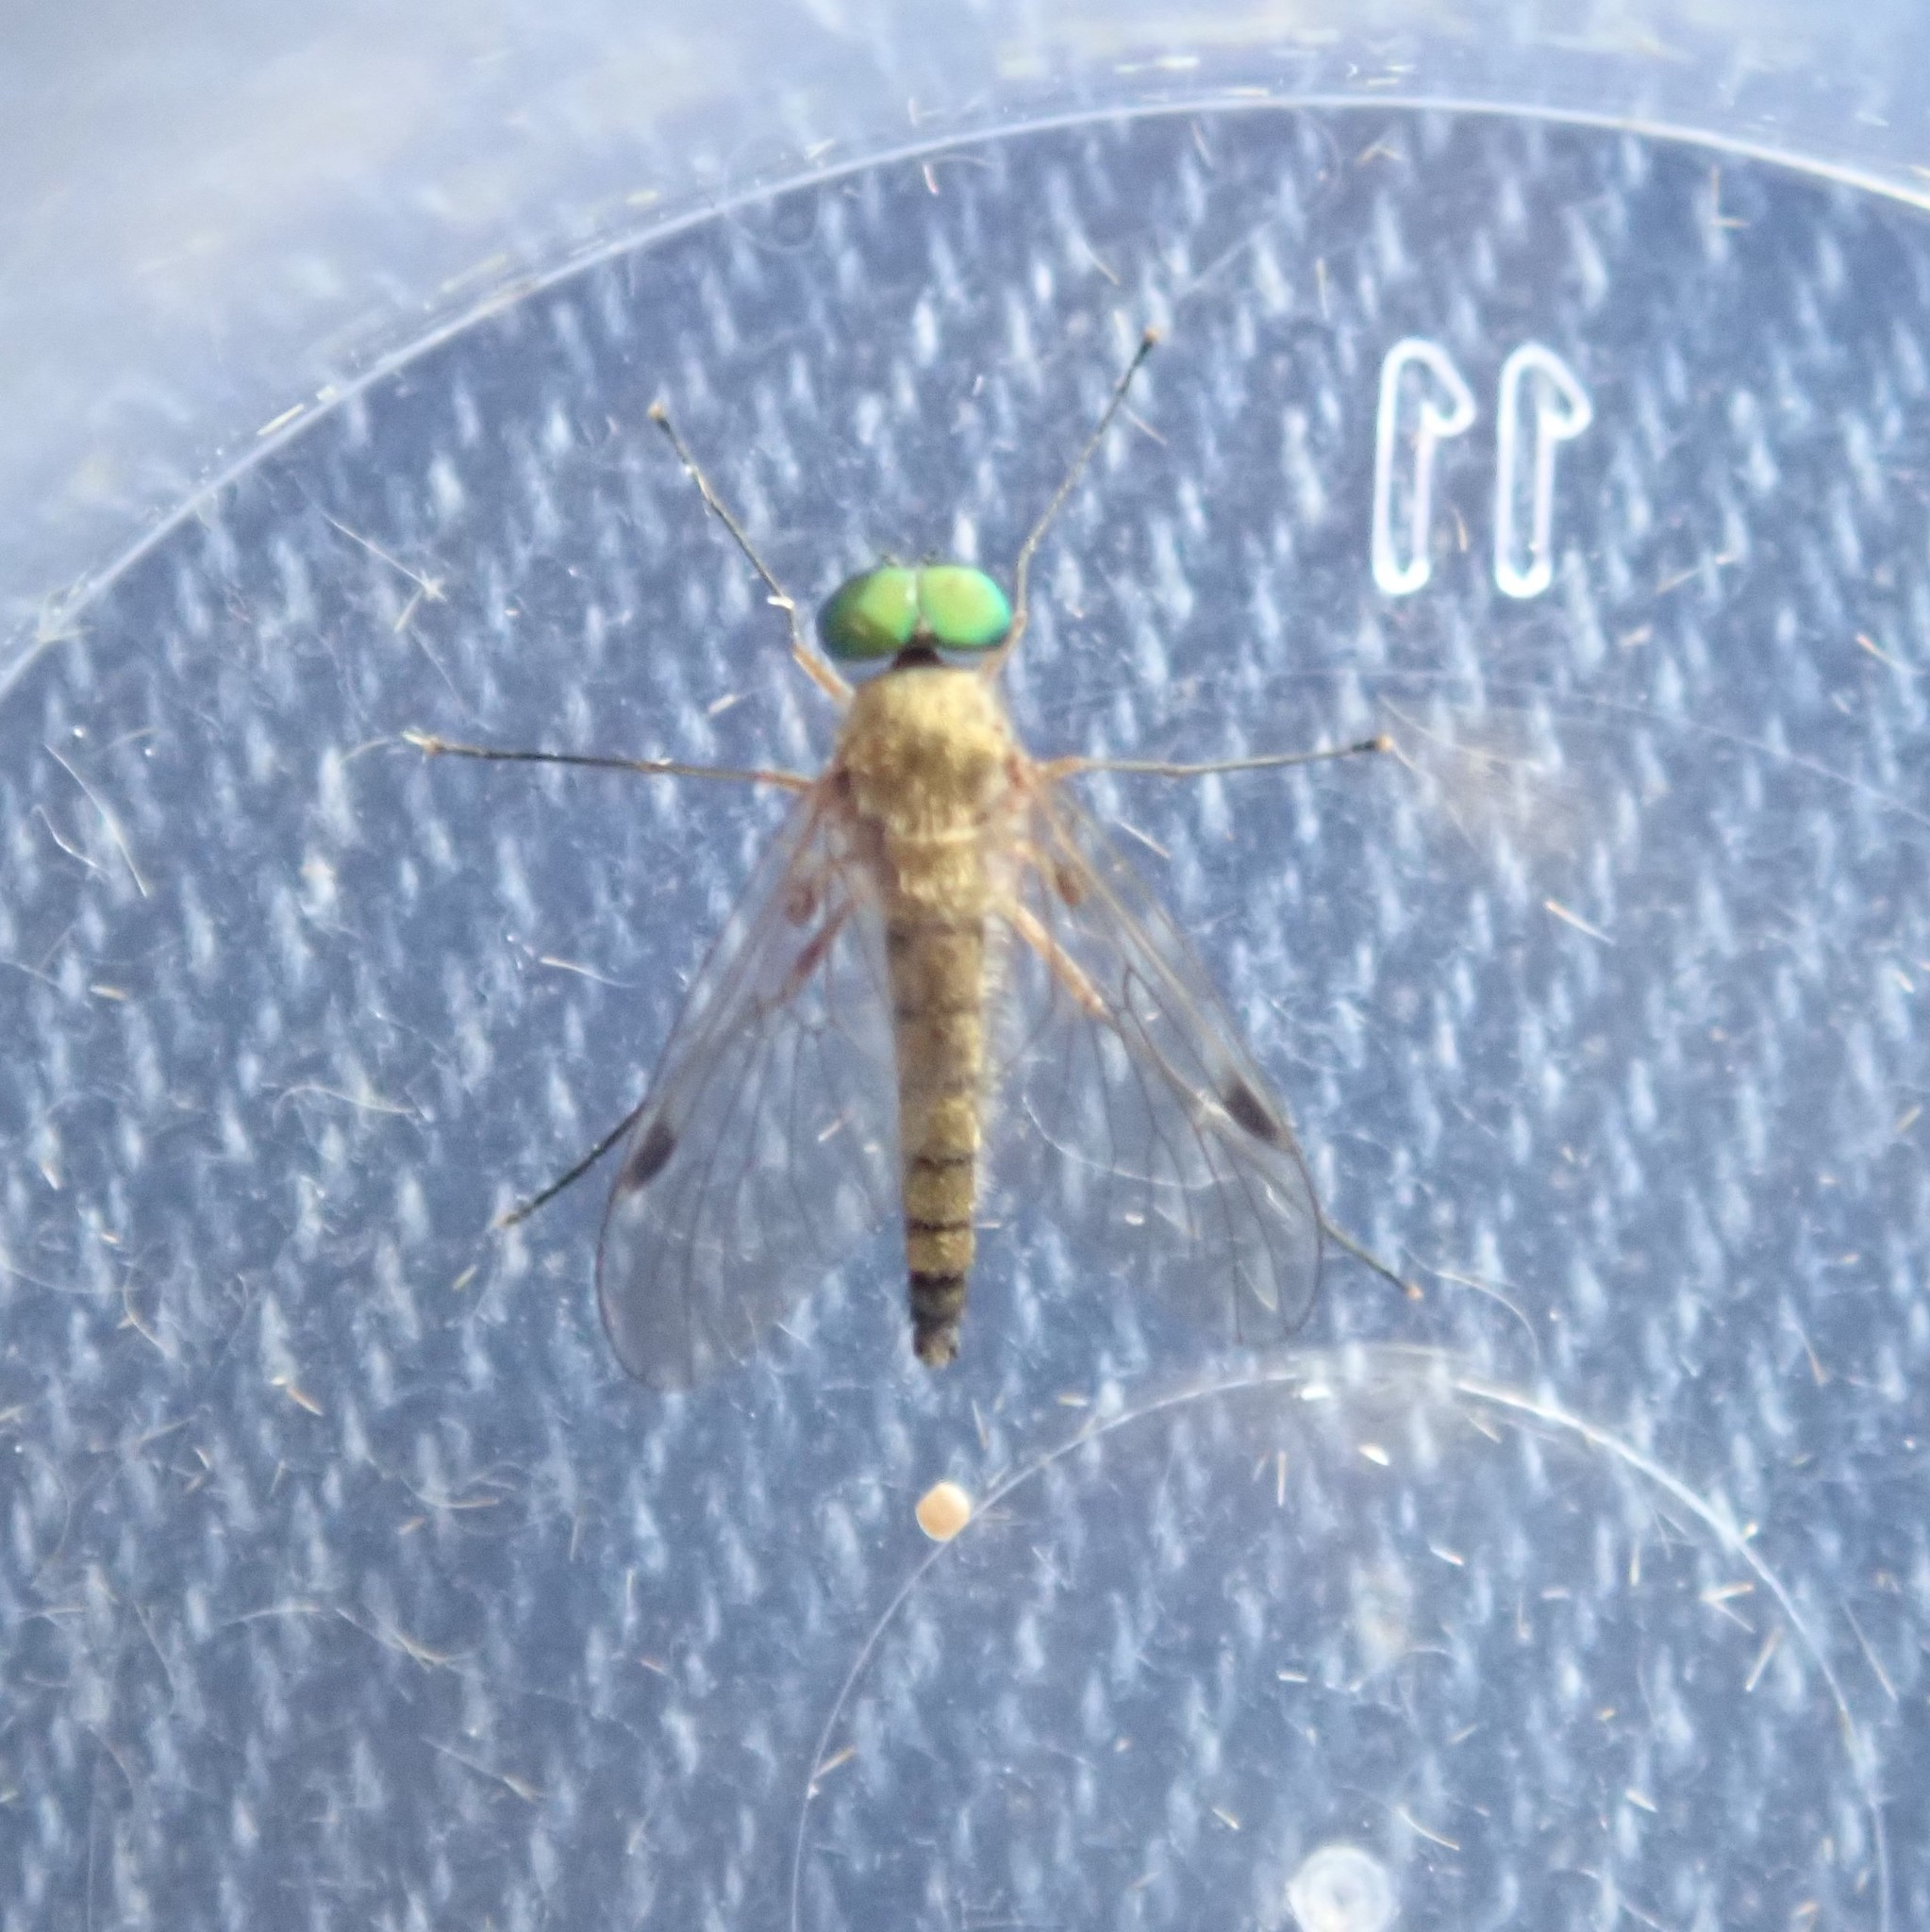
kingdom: Animalia
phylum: Arthropoda
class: Insecta
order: Diptera
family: Rhagionidae
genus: Chrysopilus
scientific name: Chrysopilus asiliformis
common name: Little snipefly
